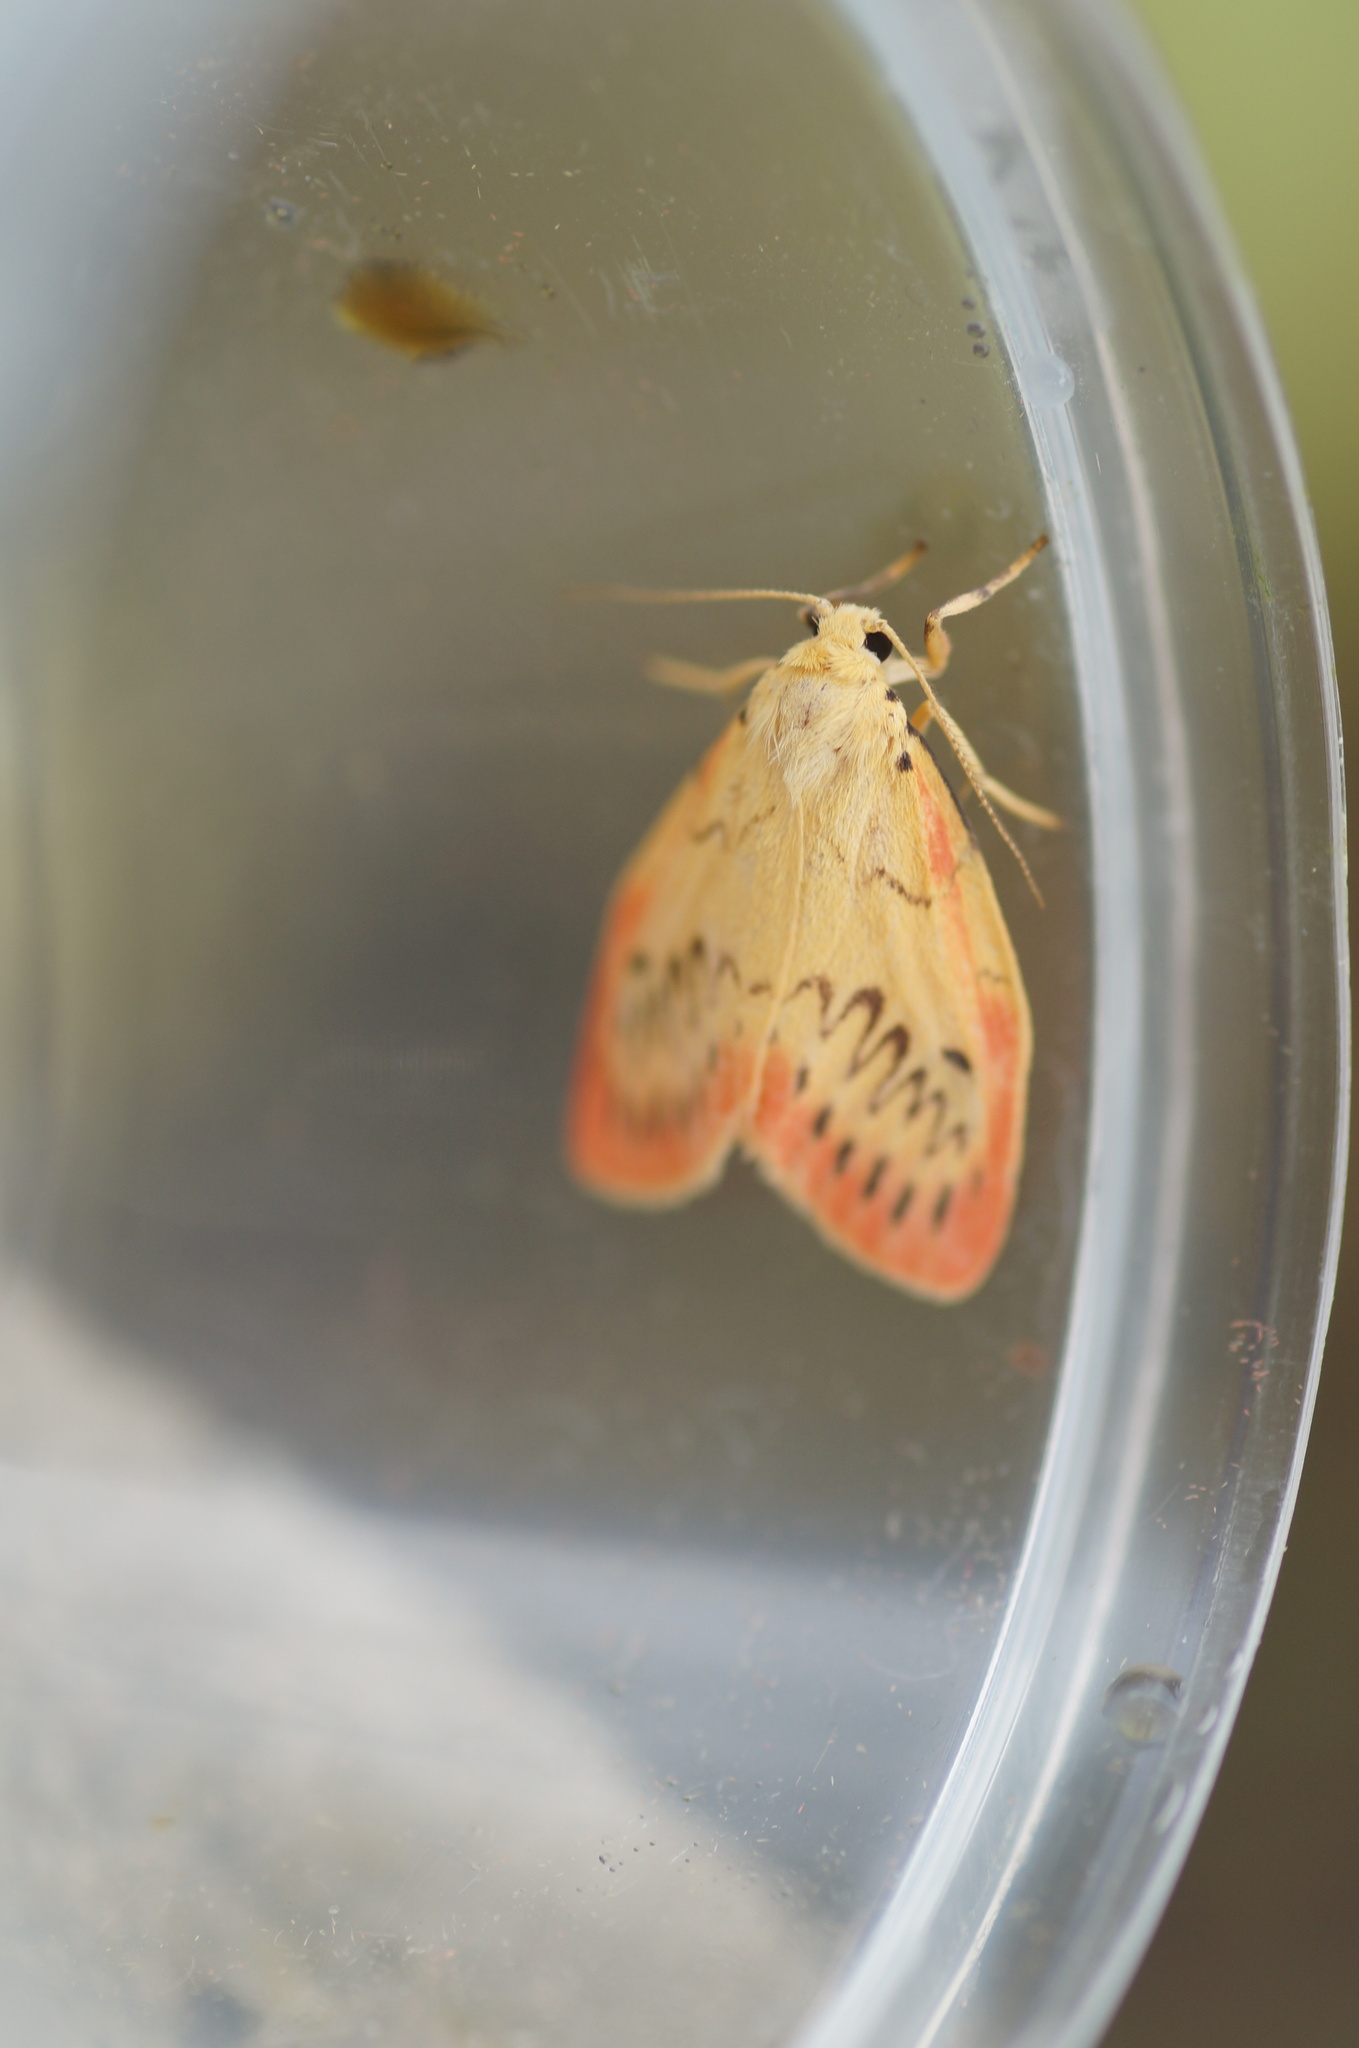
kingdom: Animalia
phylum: Arthropoda
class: Insecta
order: Lepidoptera
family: Erebidae
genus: Miltochrista
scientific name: Miltochrista miniata
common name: Rosy footman
